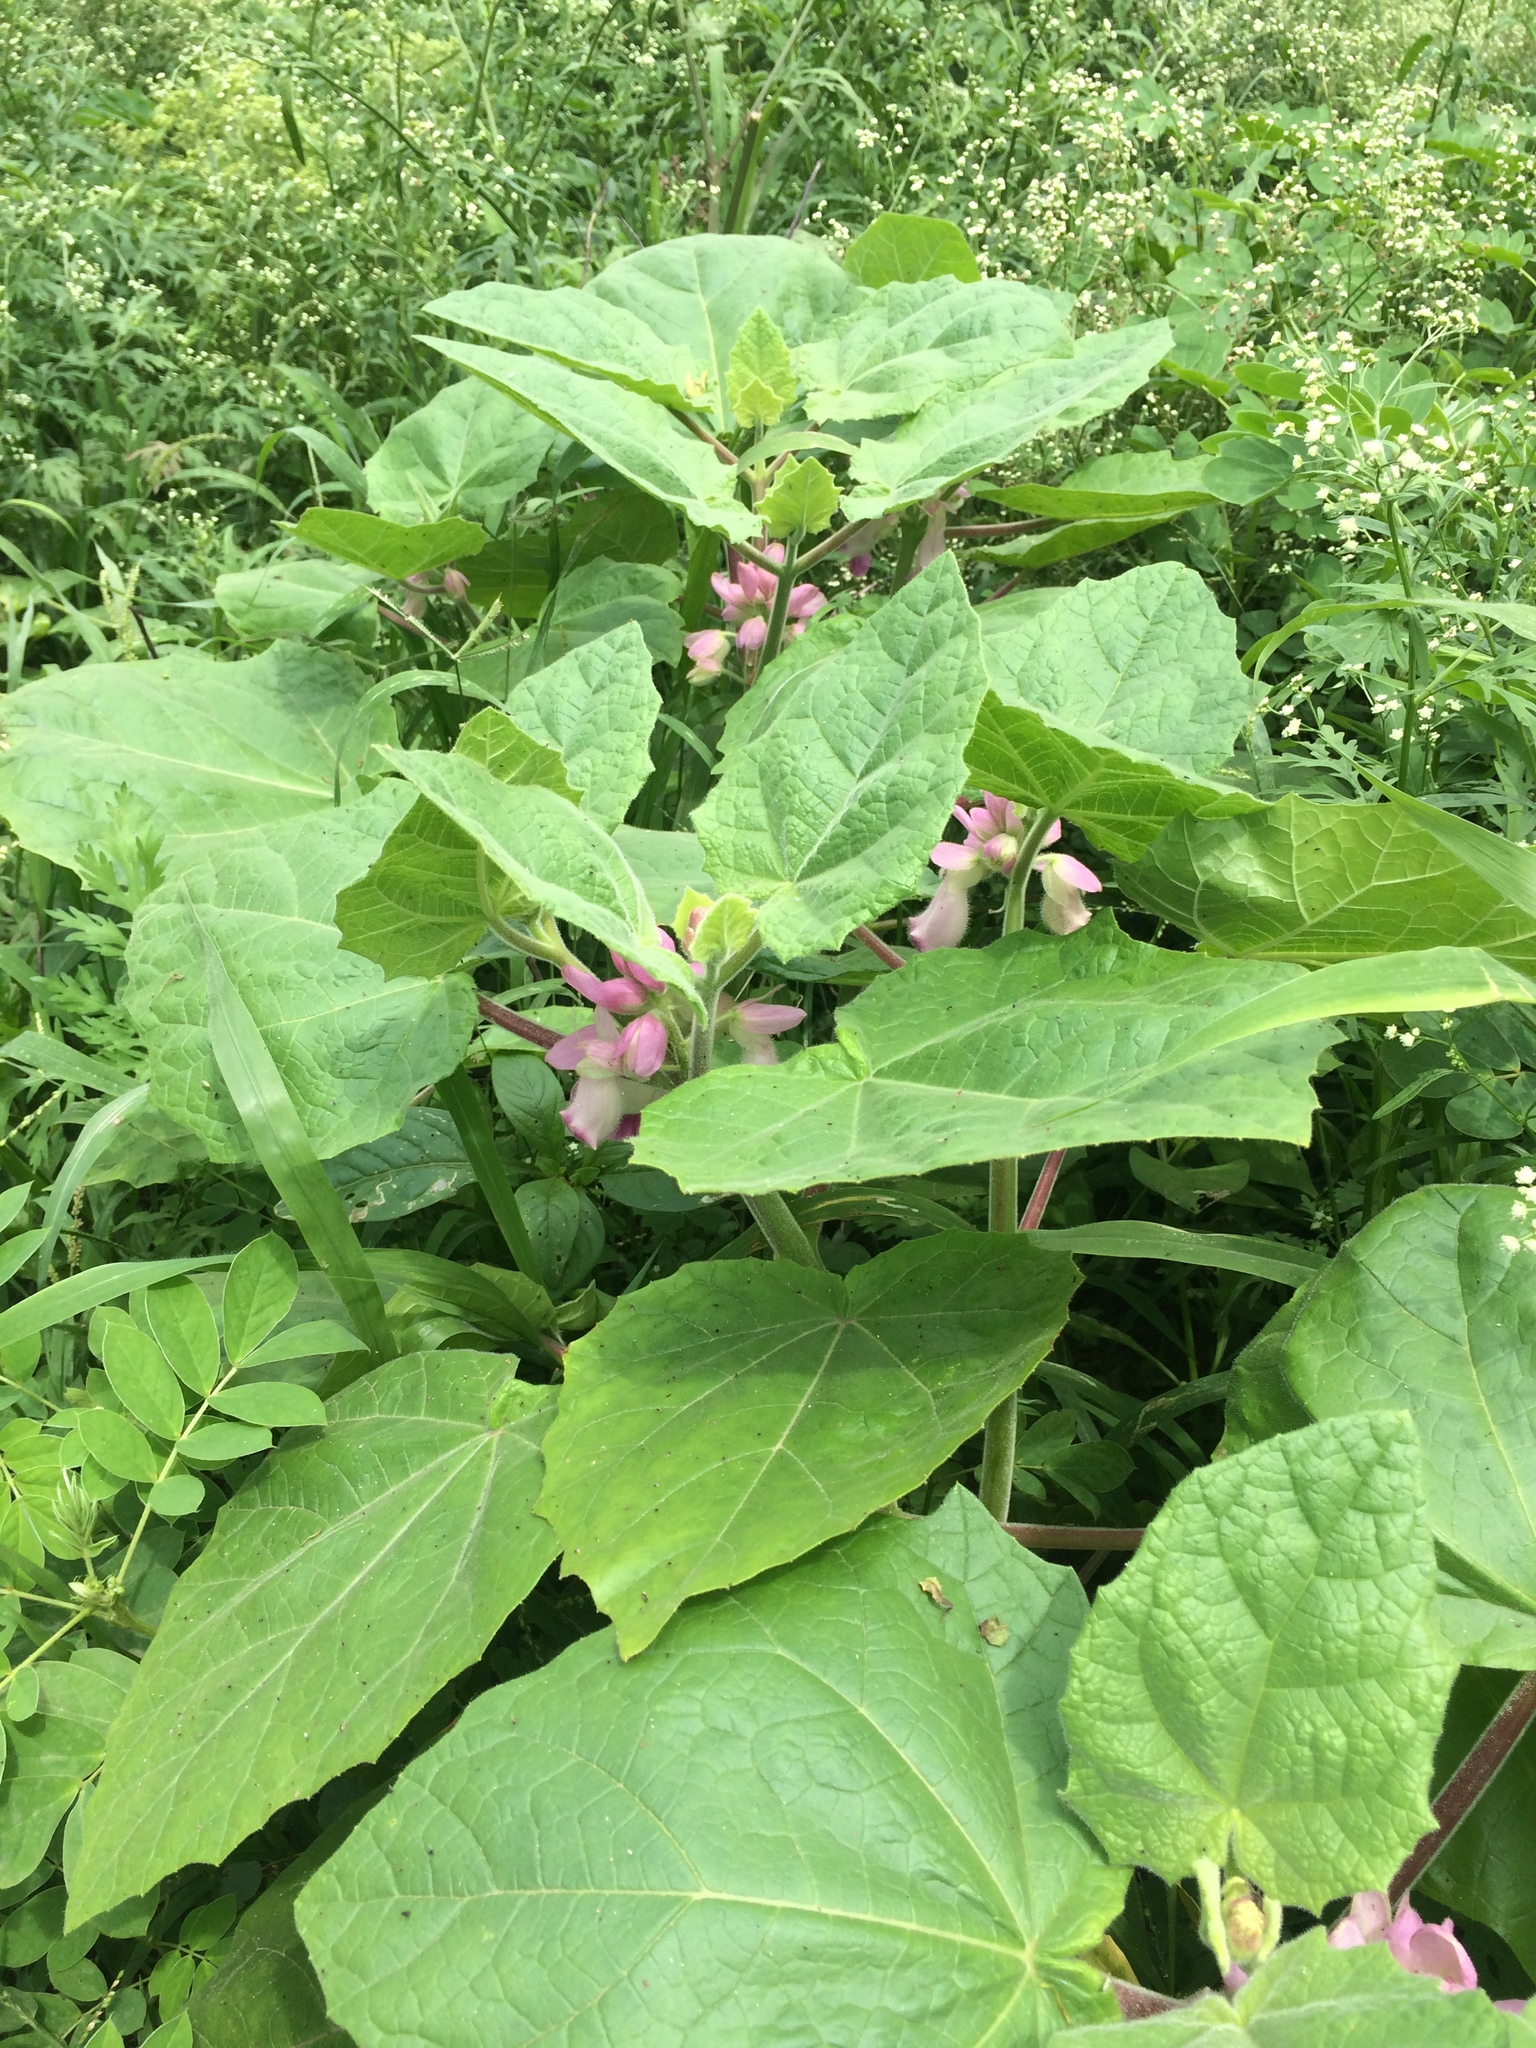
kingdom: Plantae
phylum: Tracheophyta
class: Magnoliopsida
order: Lamiales
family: Martyniaceae
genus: Martynia
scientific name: Martynia annua
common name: Tiger's-claw
